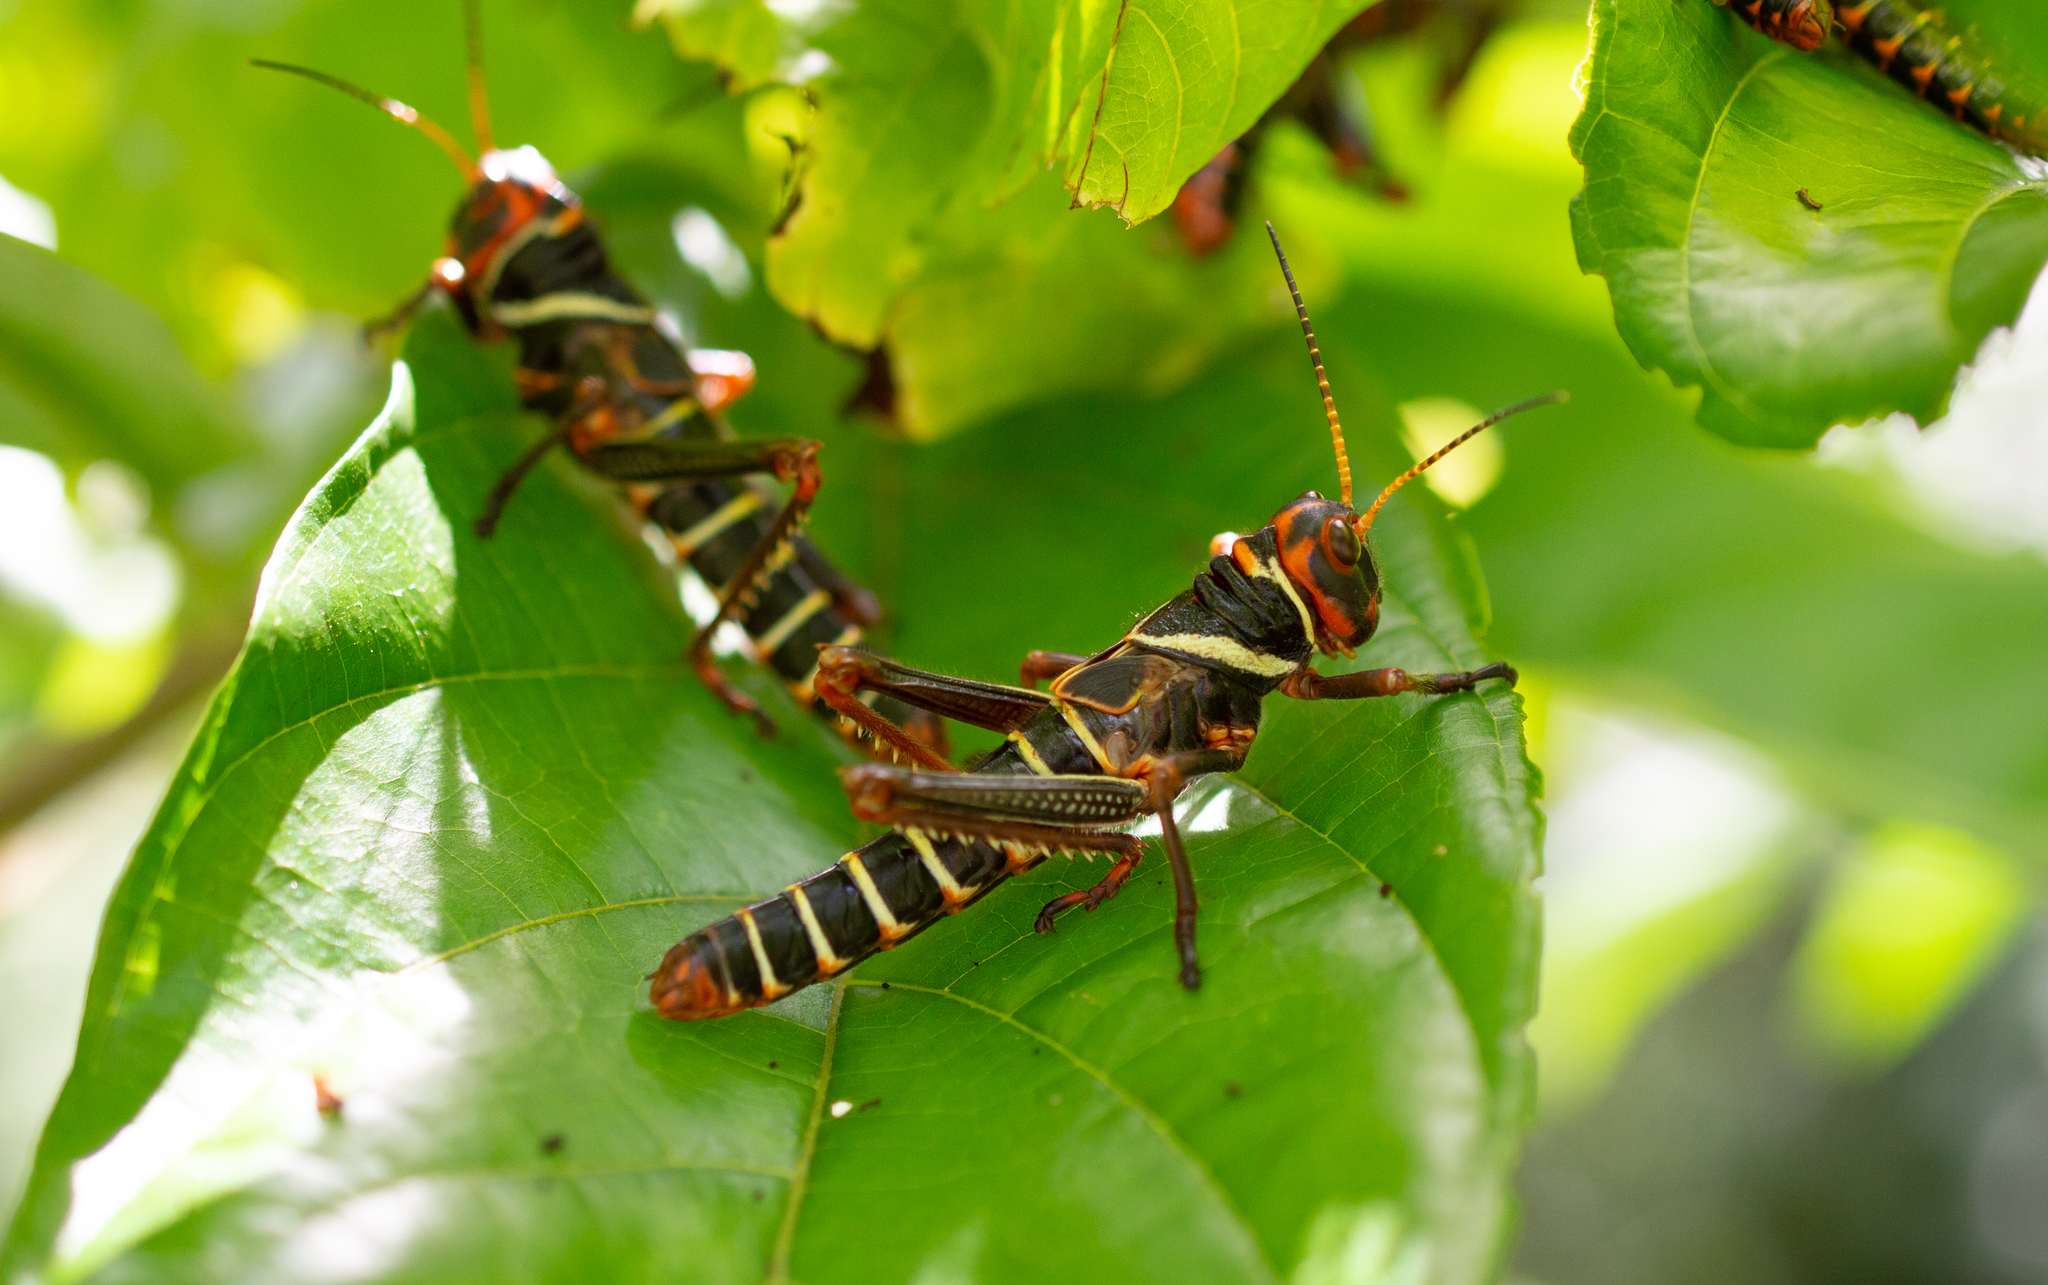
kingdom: Animalia
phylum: Arthropoda
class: Insecta
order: Orthoptera
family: Romaleidae
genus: Tropidacris
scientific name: Tropidacris collaris
